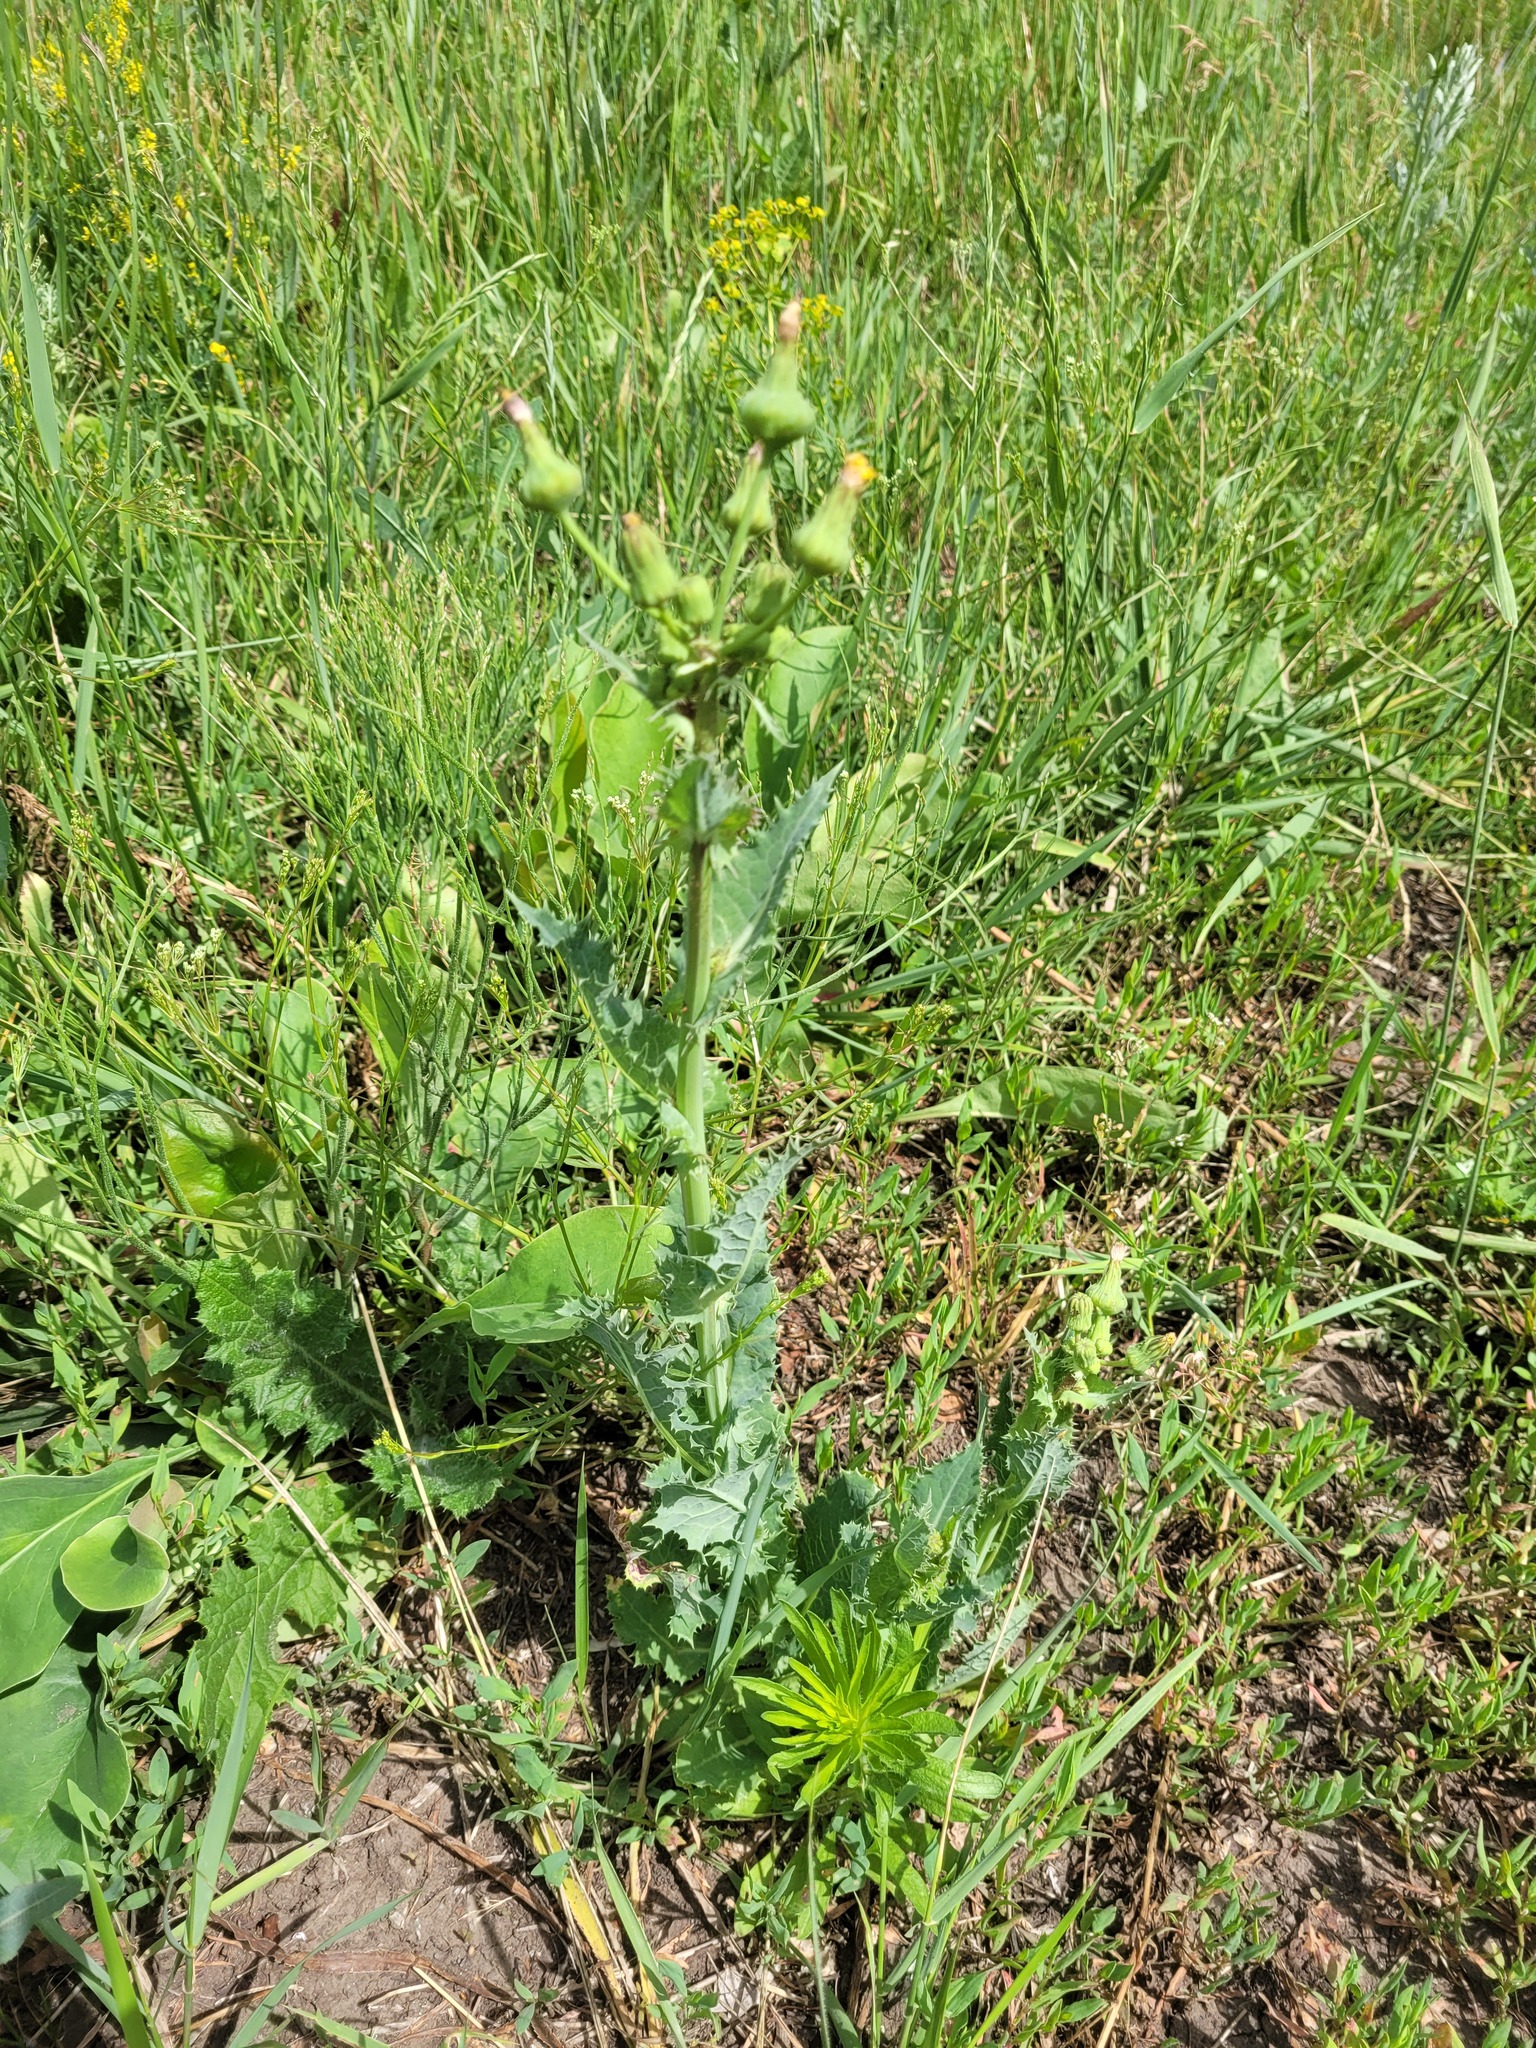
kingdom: Plantae
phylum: Tracheophyta
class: Magnoliopsida
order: Asterales
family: Asteraceae
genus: Sonchus
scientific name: Sonchus asper
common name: Prickly sow-thistle
